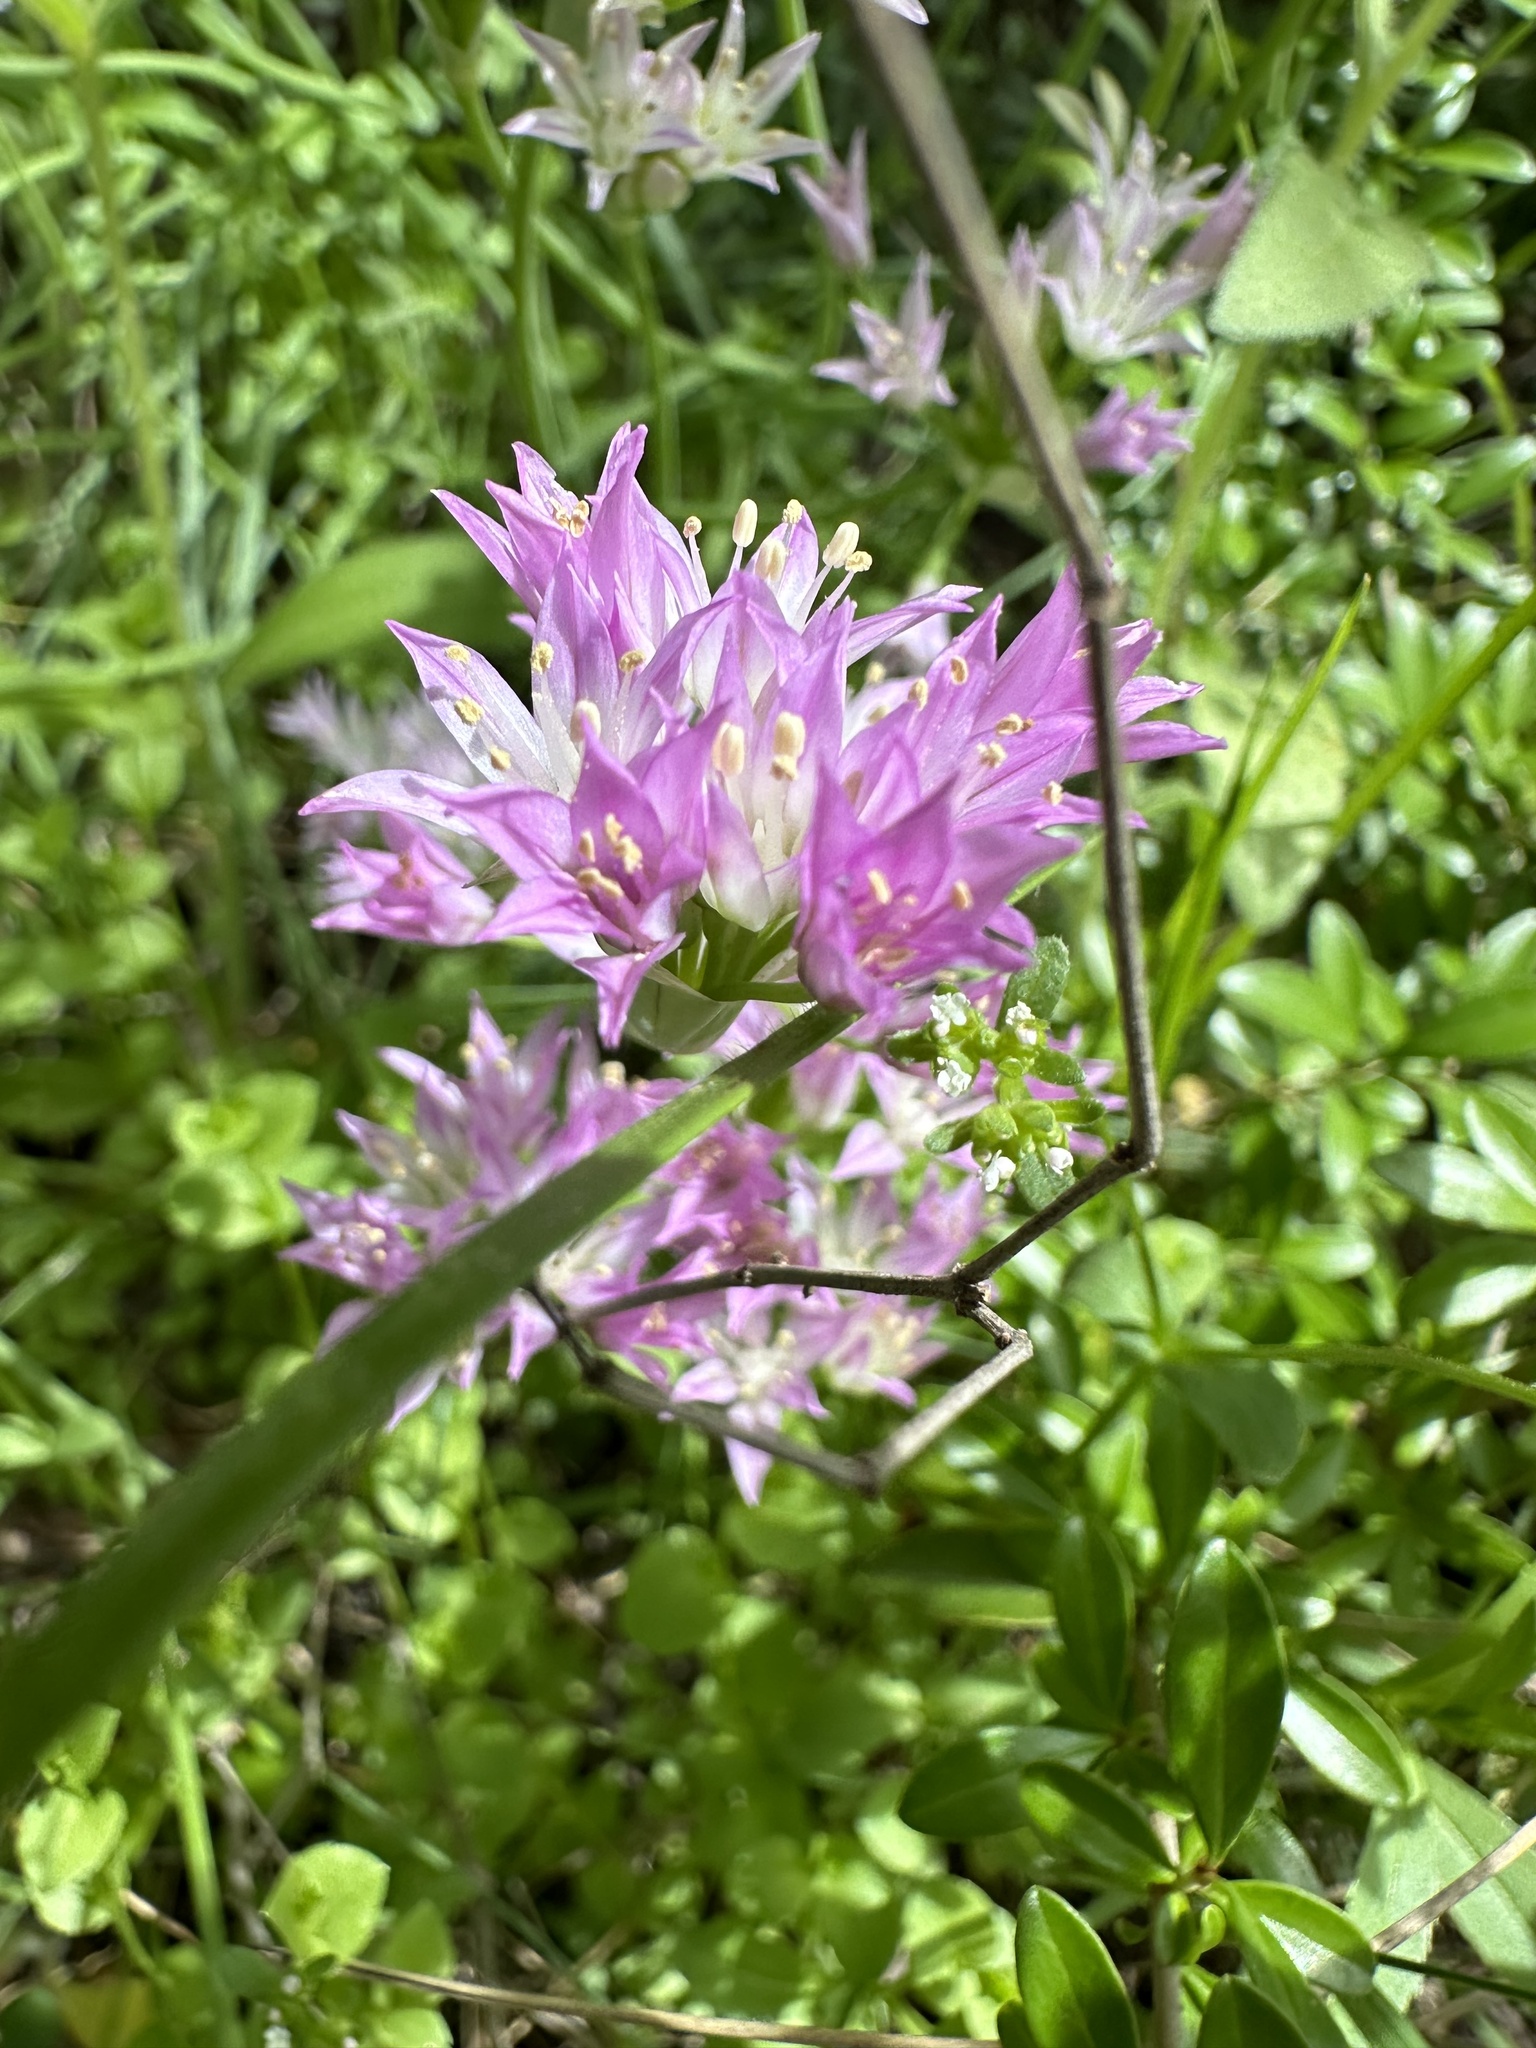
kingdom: Plantae
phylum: Tracheophyta
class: Liliopsida
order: Asparagales
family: Amaryllidaceae
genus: Allium
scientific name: Allium drummondii
